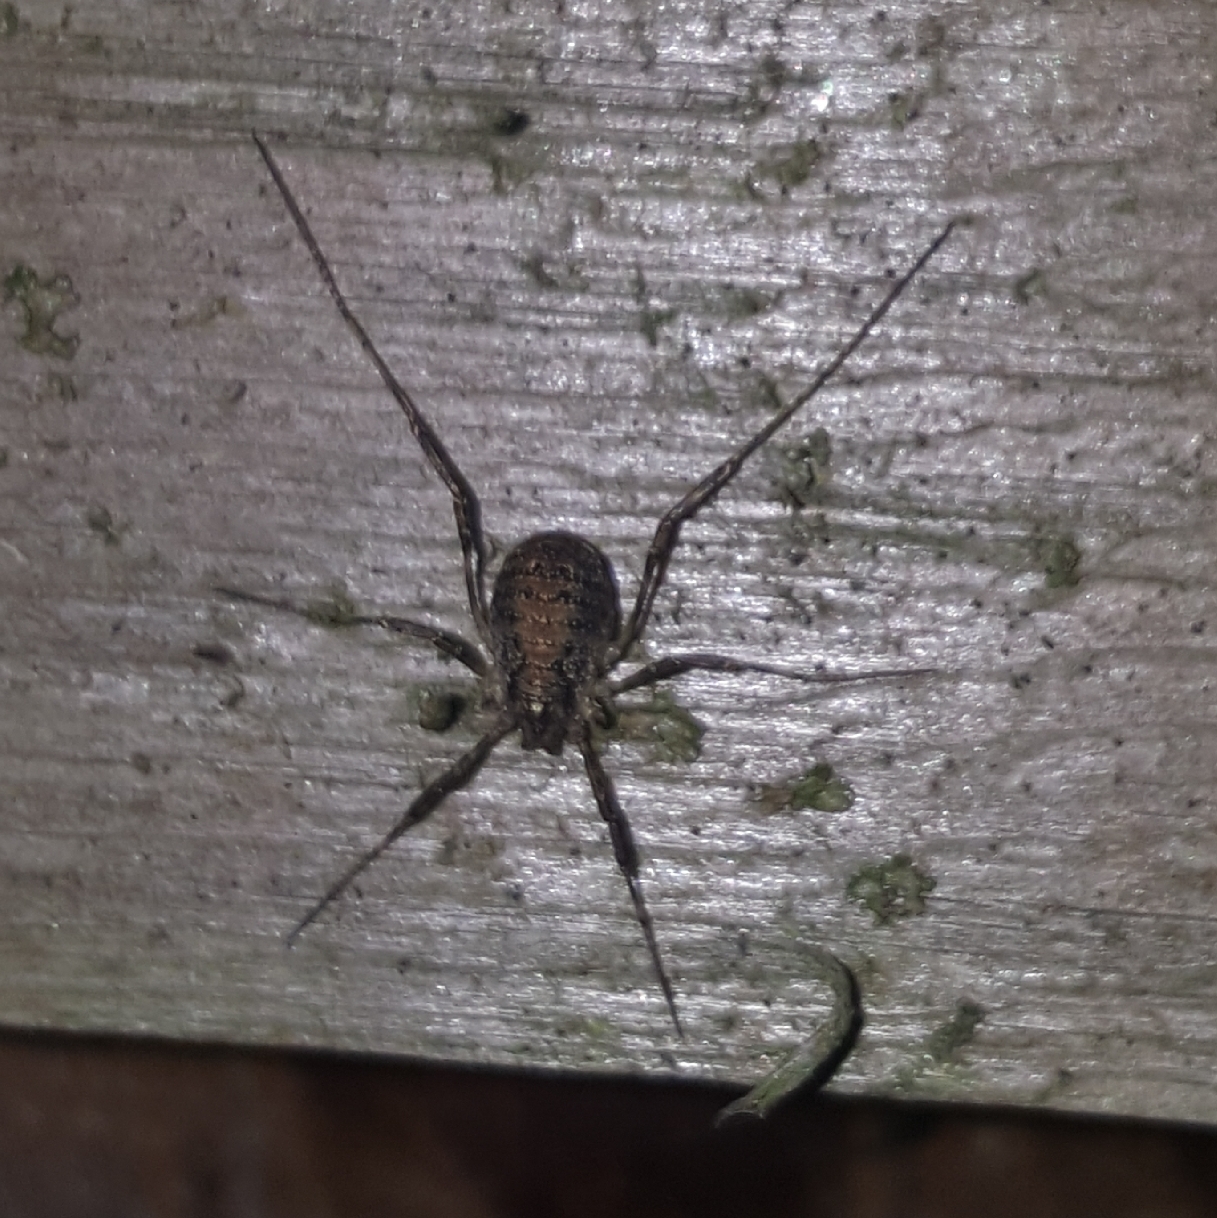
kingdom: Animalia
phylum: Arthropoda
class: Arachnida
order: Opiliones
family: Phalangiidae
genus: Paroligolophus
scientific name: Paroligolophus agrestis
